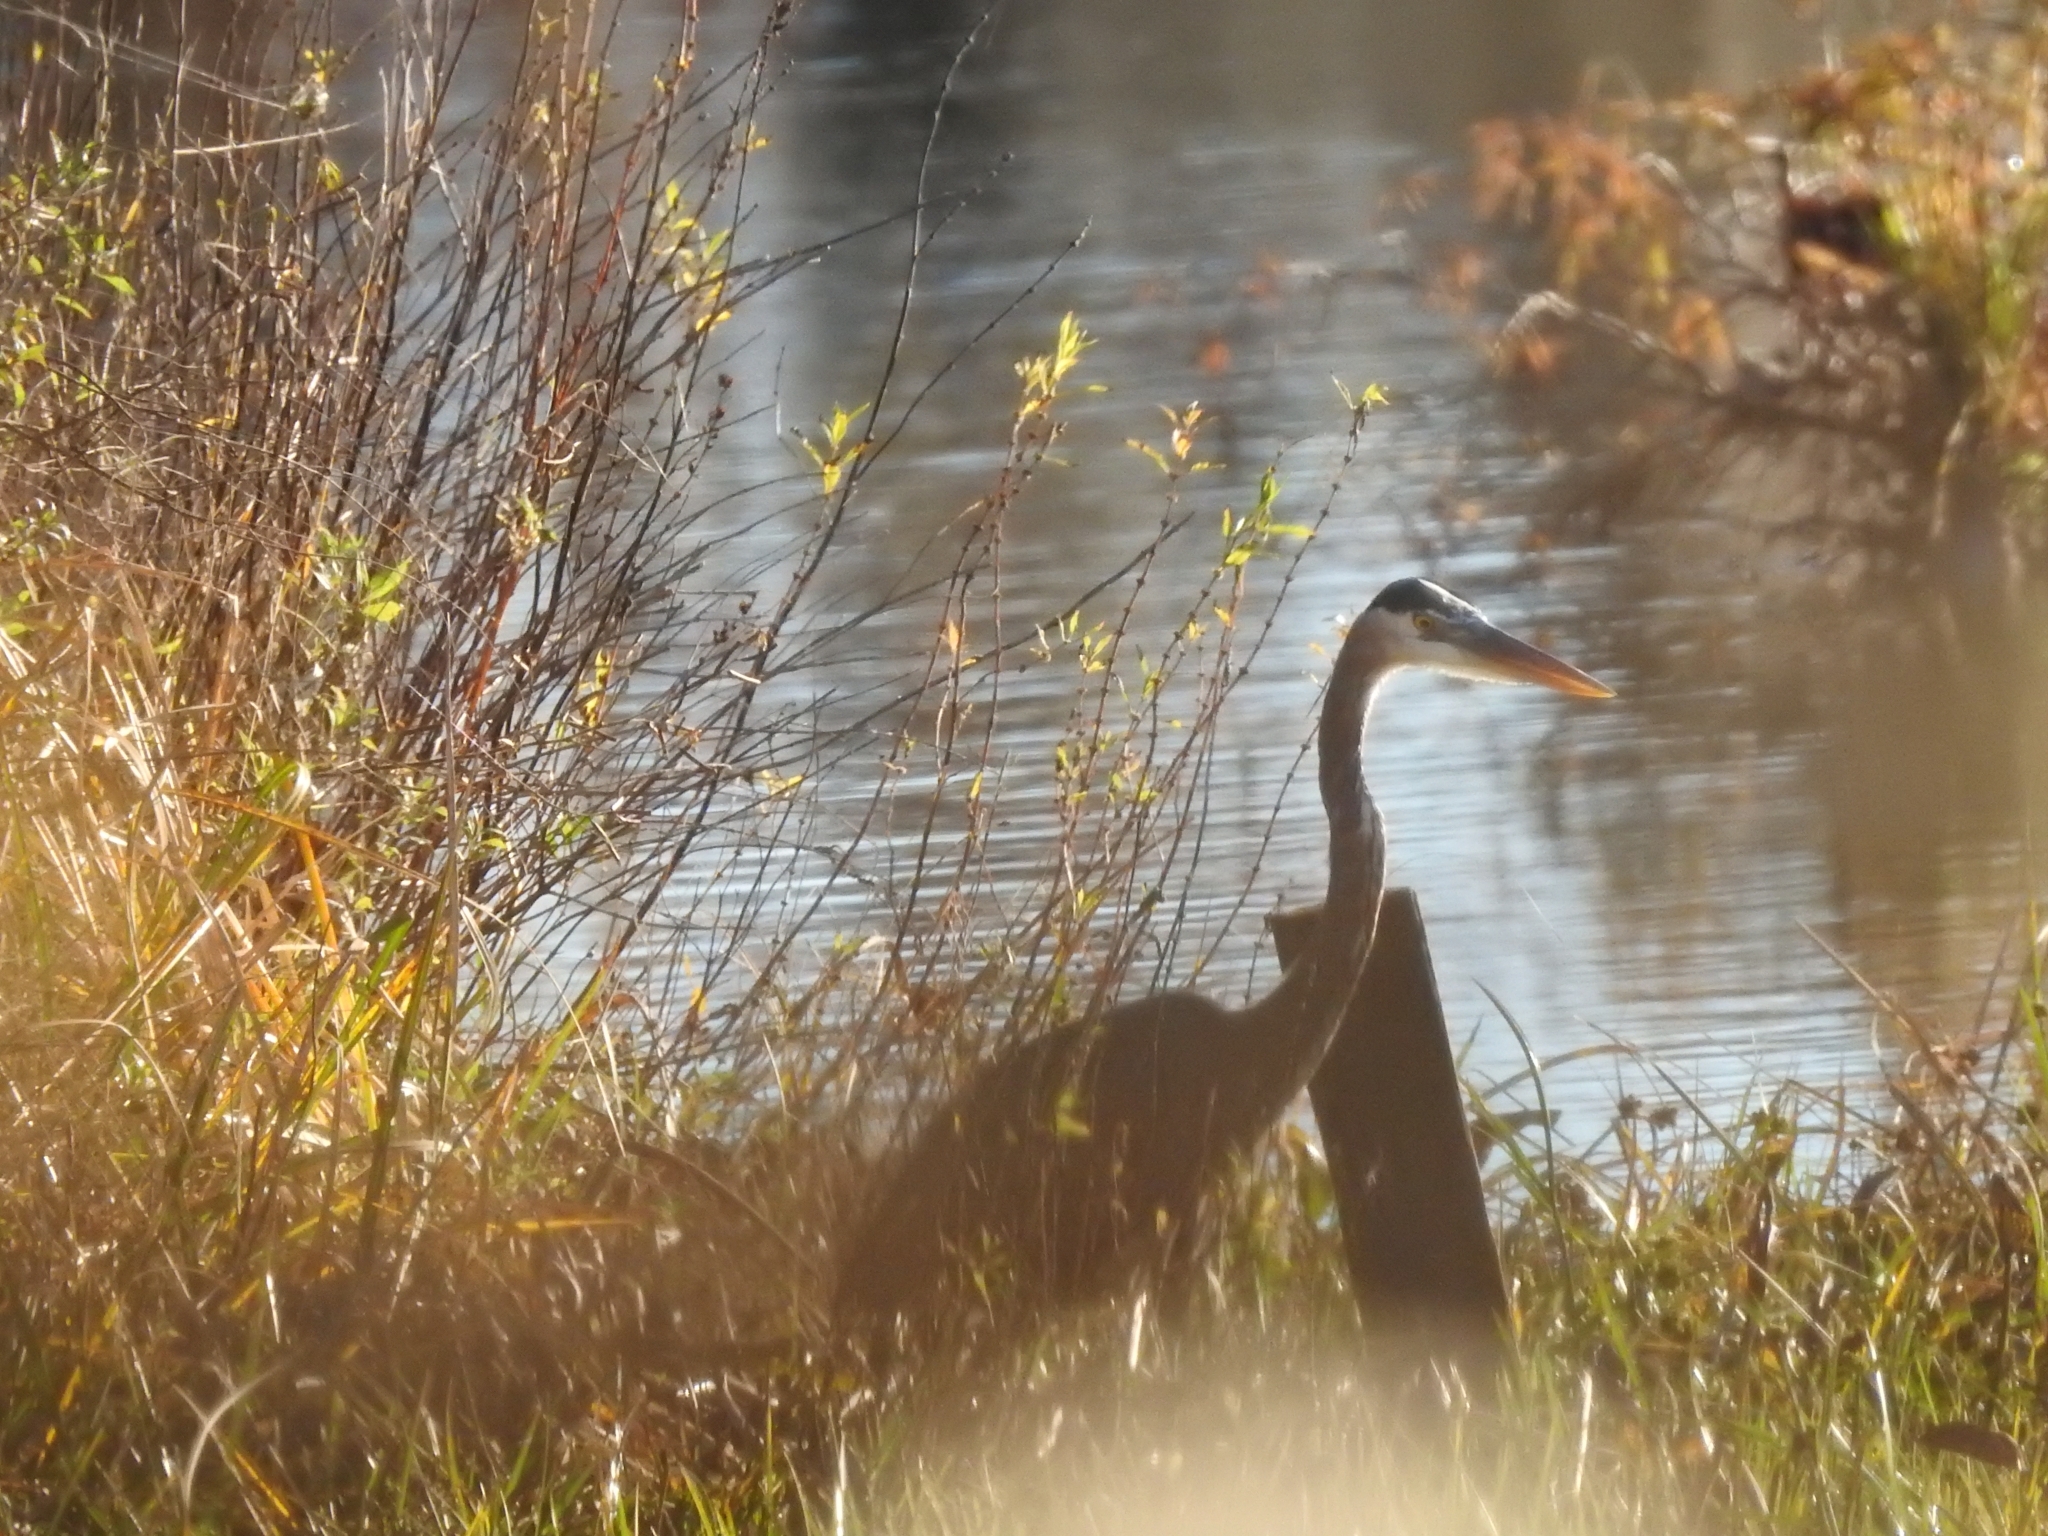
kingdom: Animalia
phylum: Chordata
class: Aves
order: Pelecaniformes
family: Ardeidae
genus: Ardea
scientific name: Ardea herodias
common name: Great blue heron
